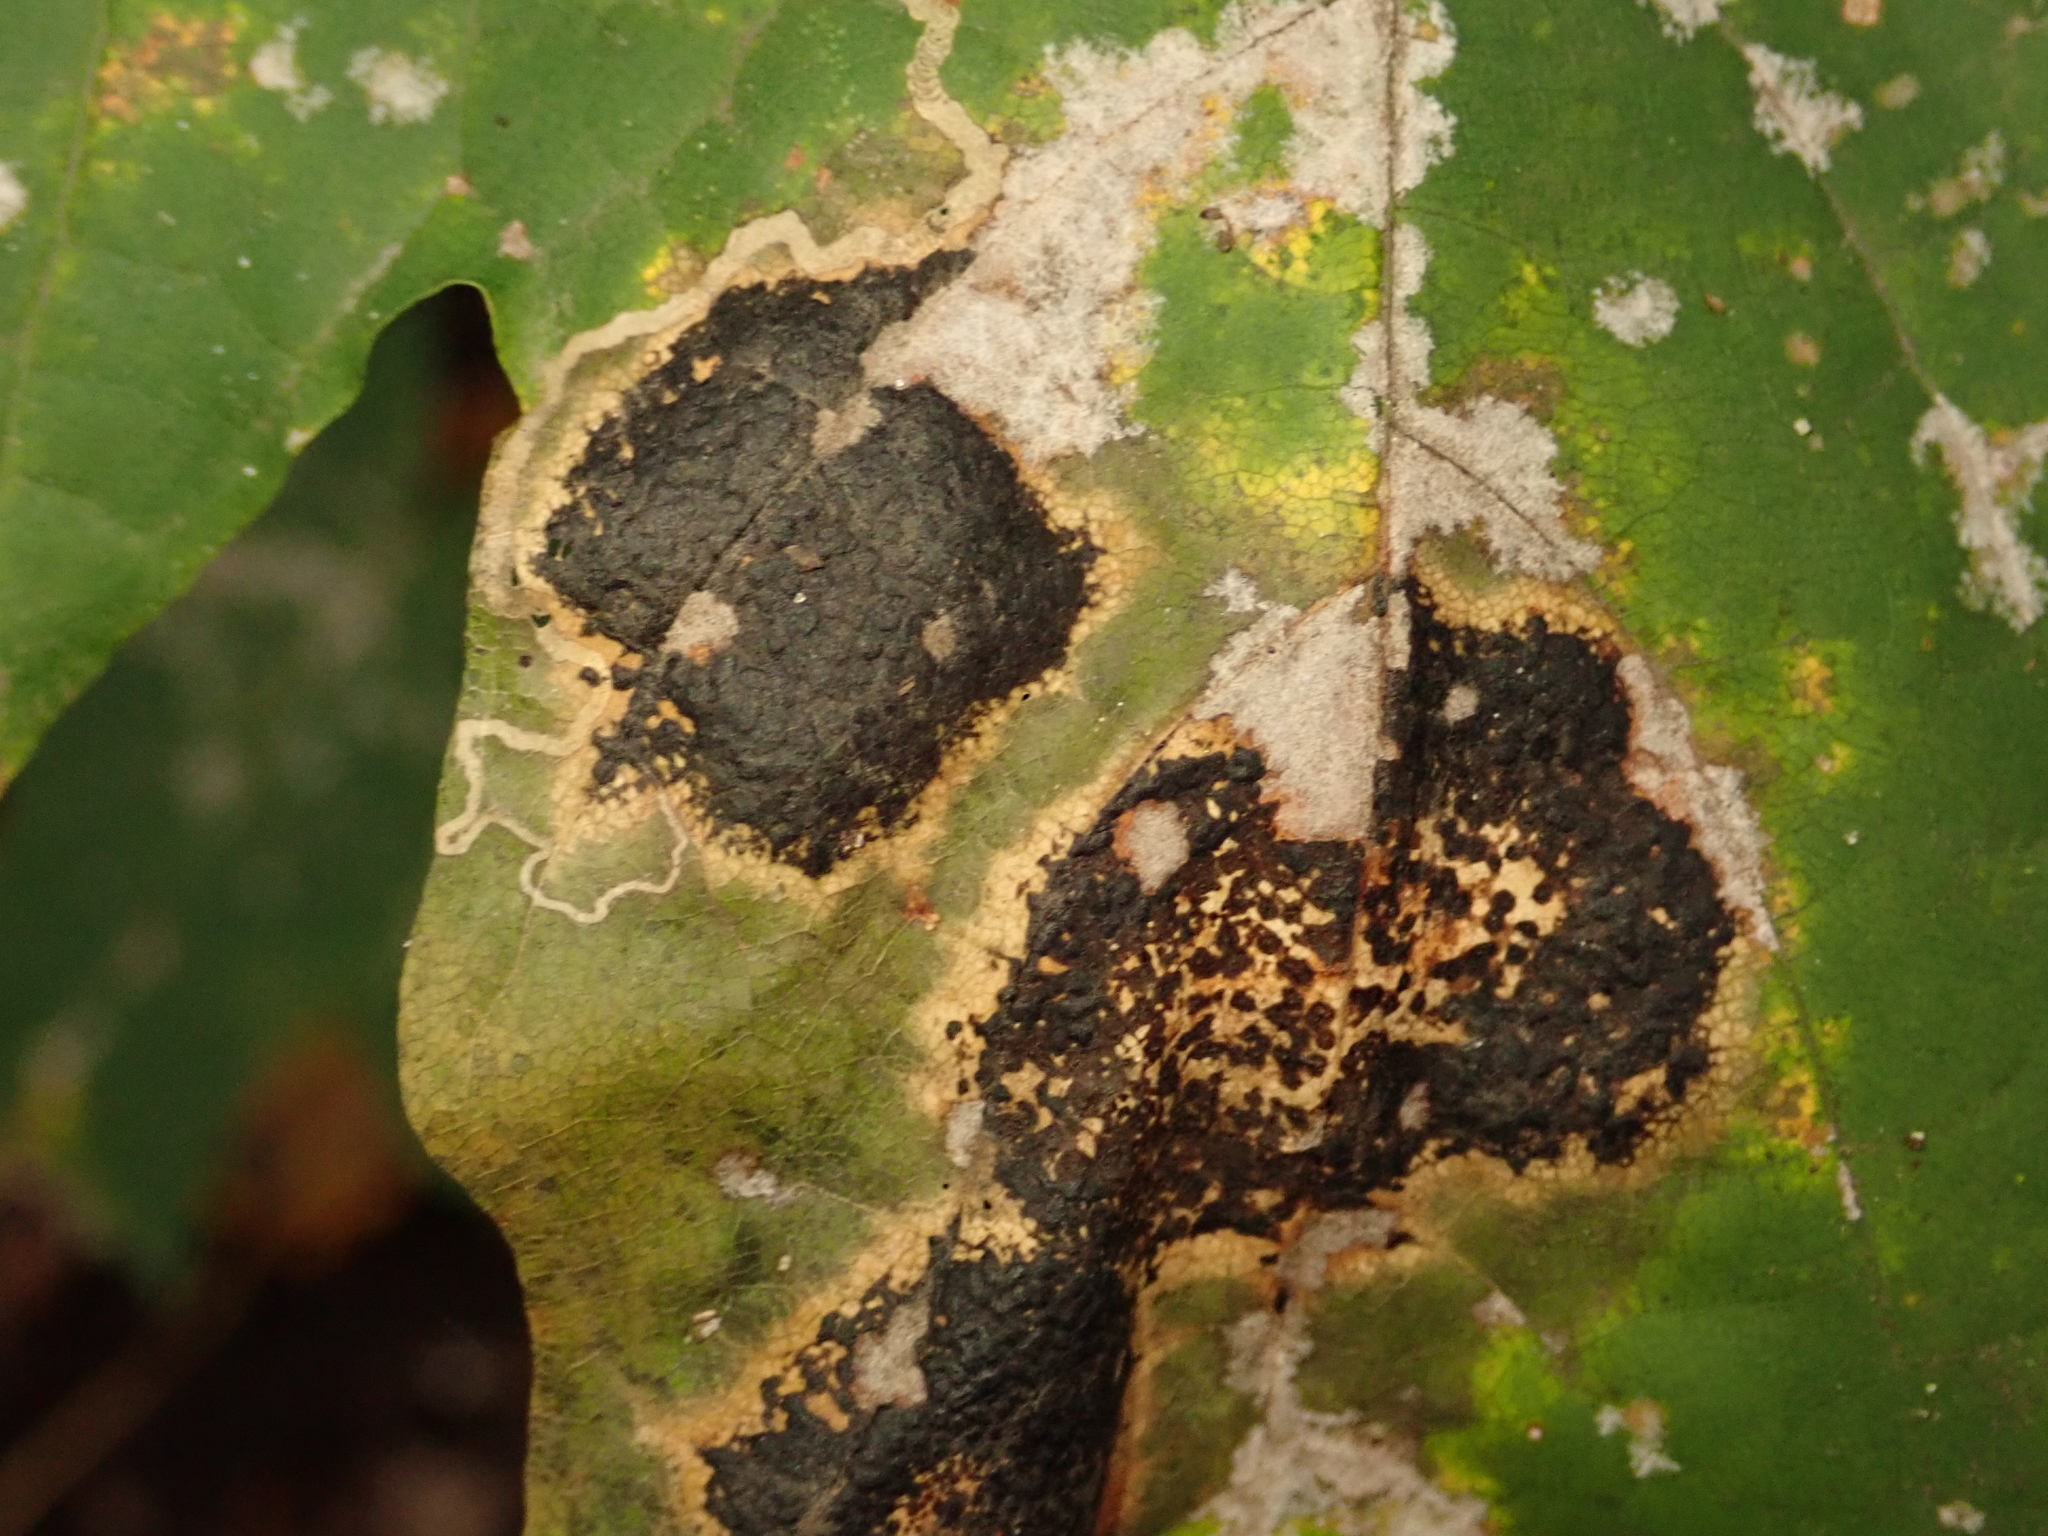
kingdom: Fungi
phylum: Ascomycota
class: Leotiomycetes
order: Rhytismatales
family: Rhytismataceae
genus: Rhytisma
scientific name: Rhytisma acerinum
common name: European tar spot
